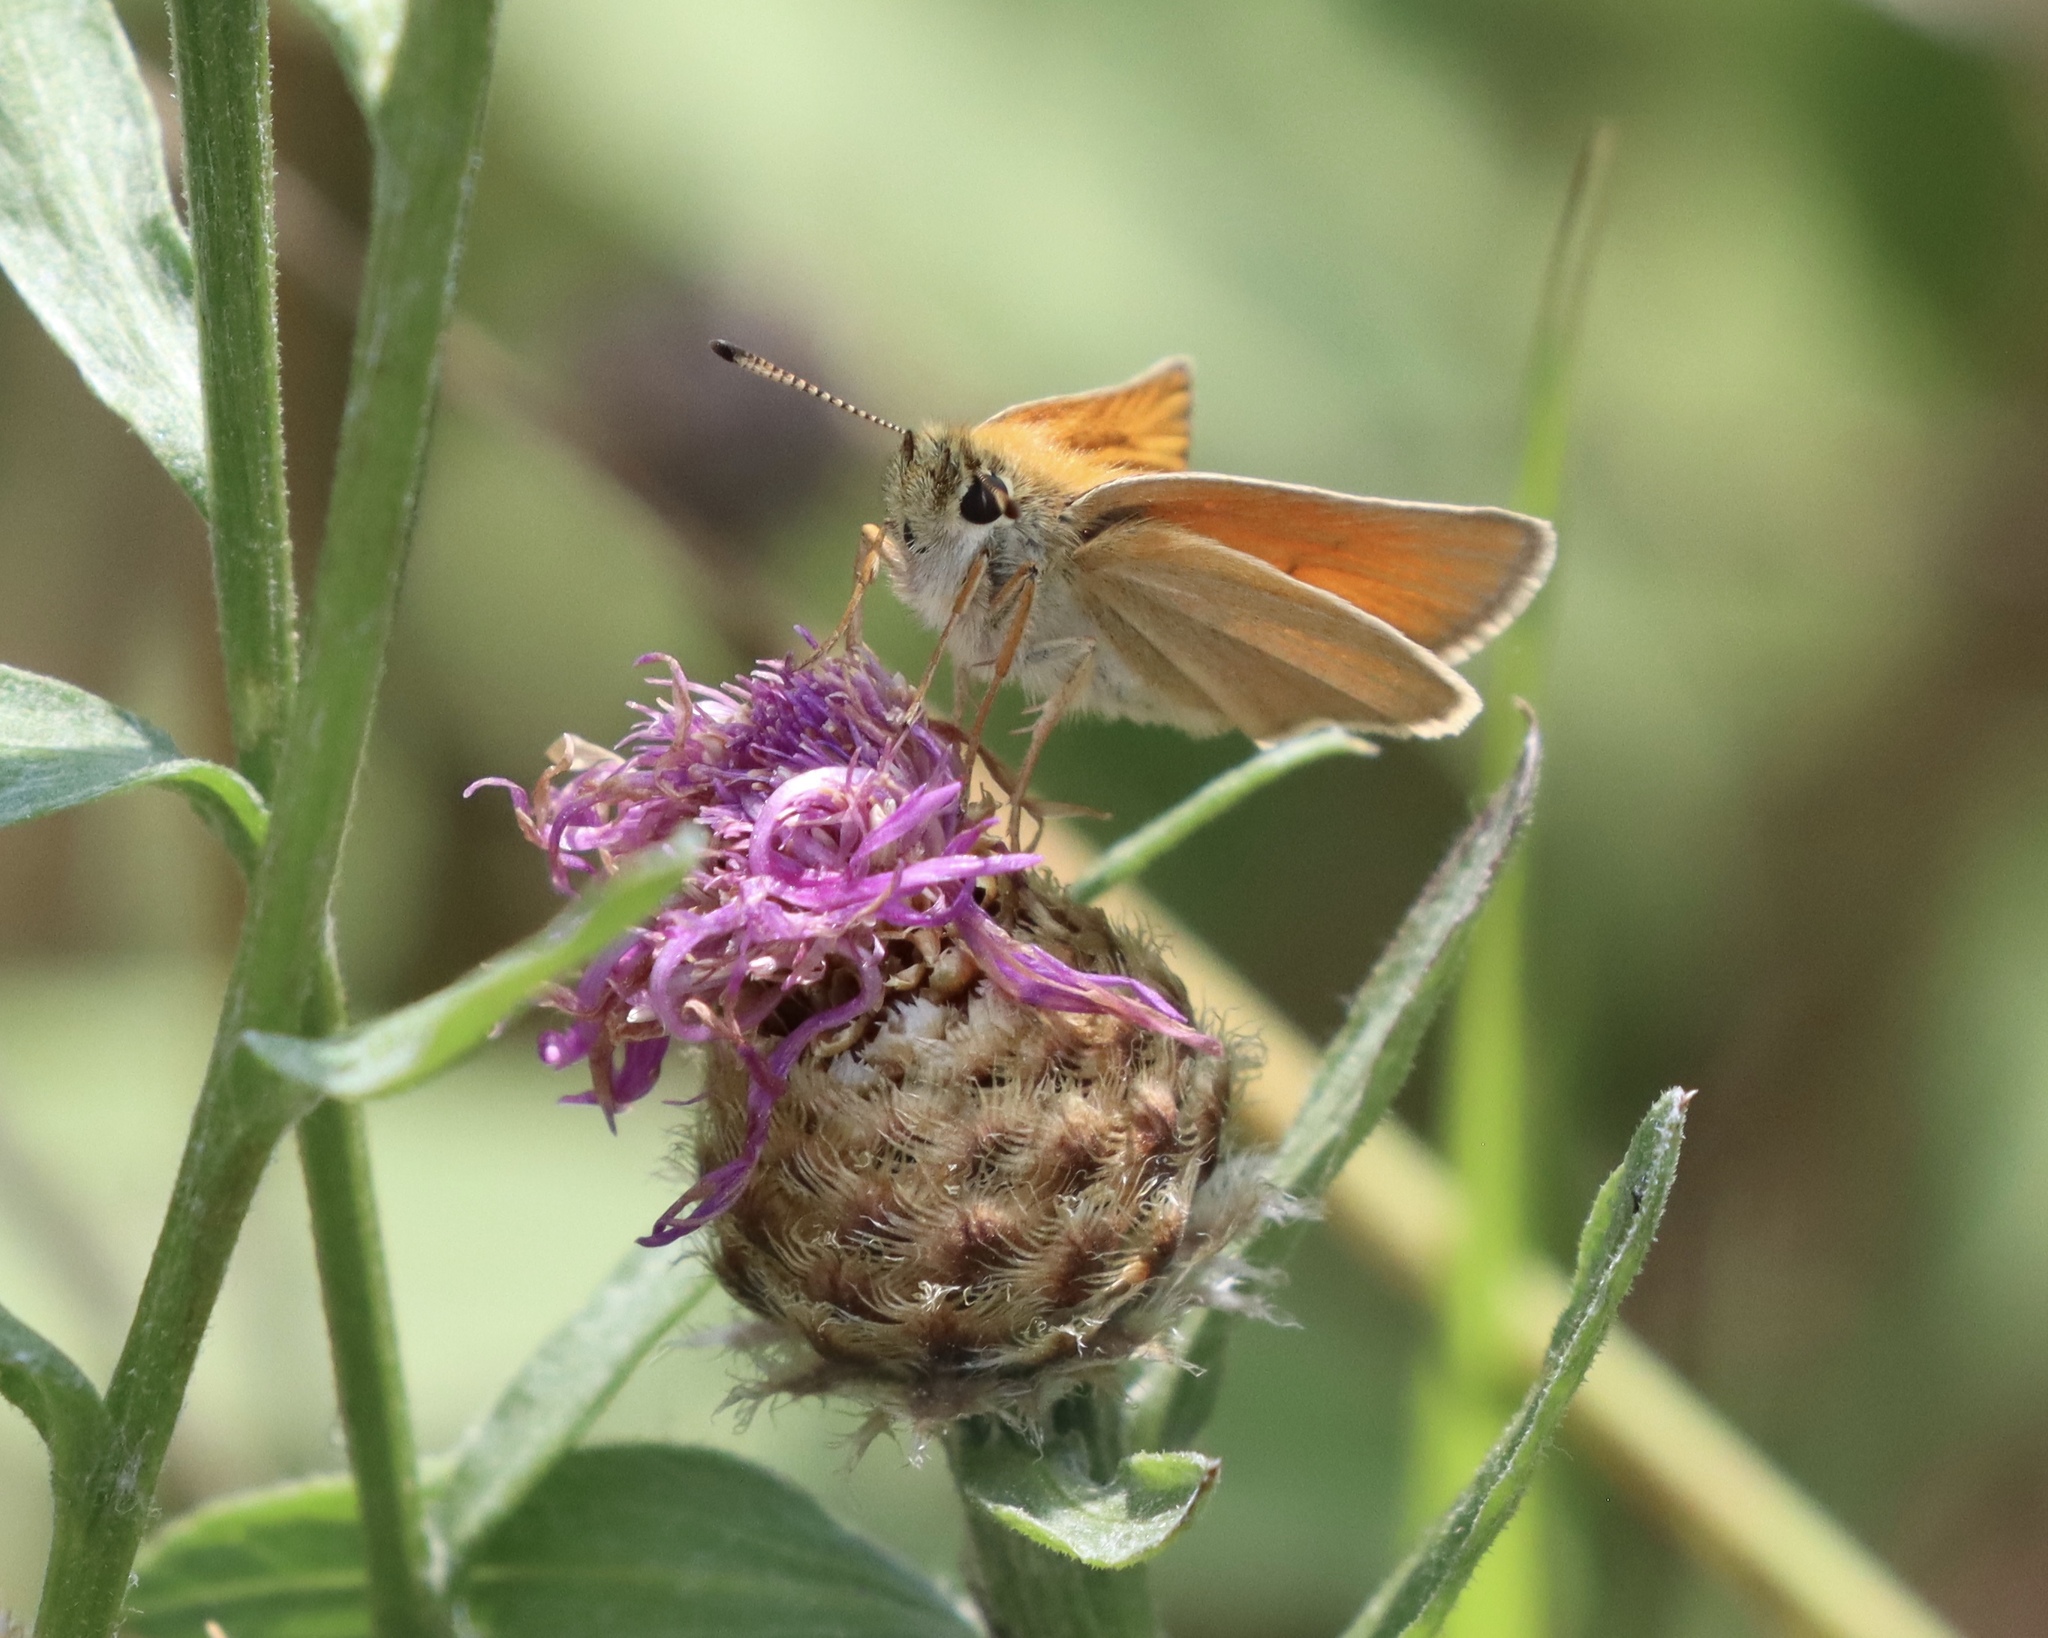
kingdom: Animalia
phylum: Arthropoda
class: Insecta
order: Lepidoptera
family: Hesperiidae
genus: Thymelicus
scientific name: Thymelicus lineola
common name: Essex skipper
